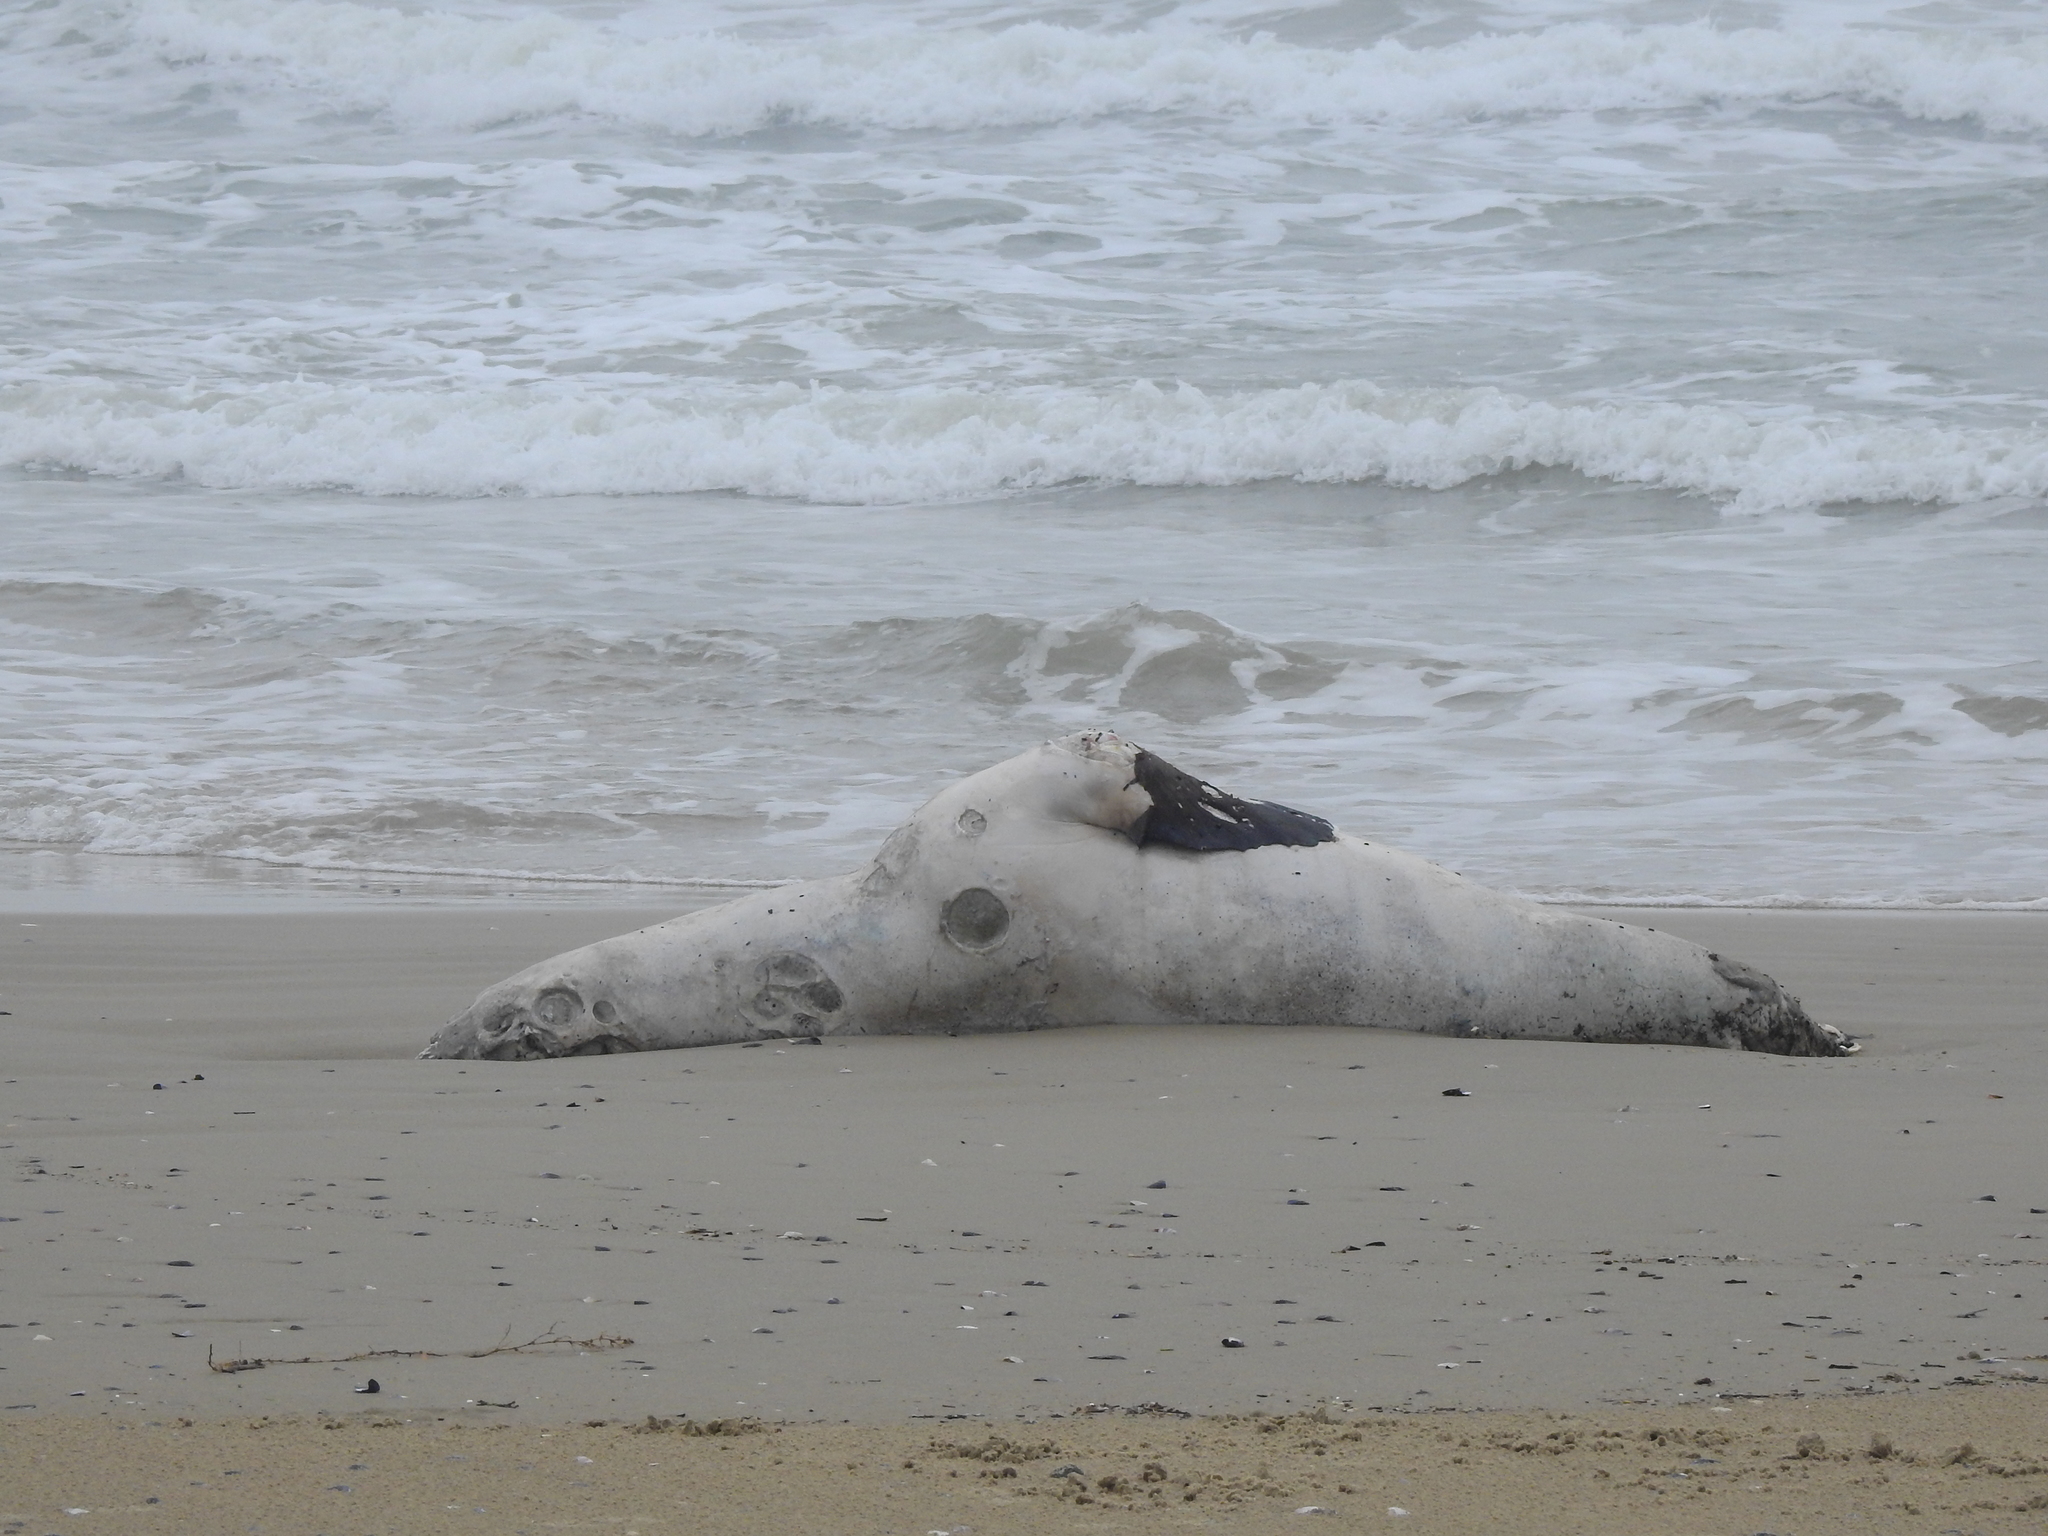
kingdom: Animalia
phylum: Chordata
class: Mammalia
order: Carnivora
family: Otariidae
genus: Otaria
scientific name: Otaria byronia
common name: South american sea lion
